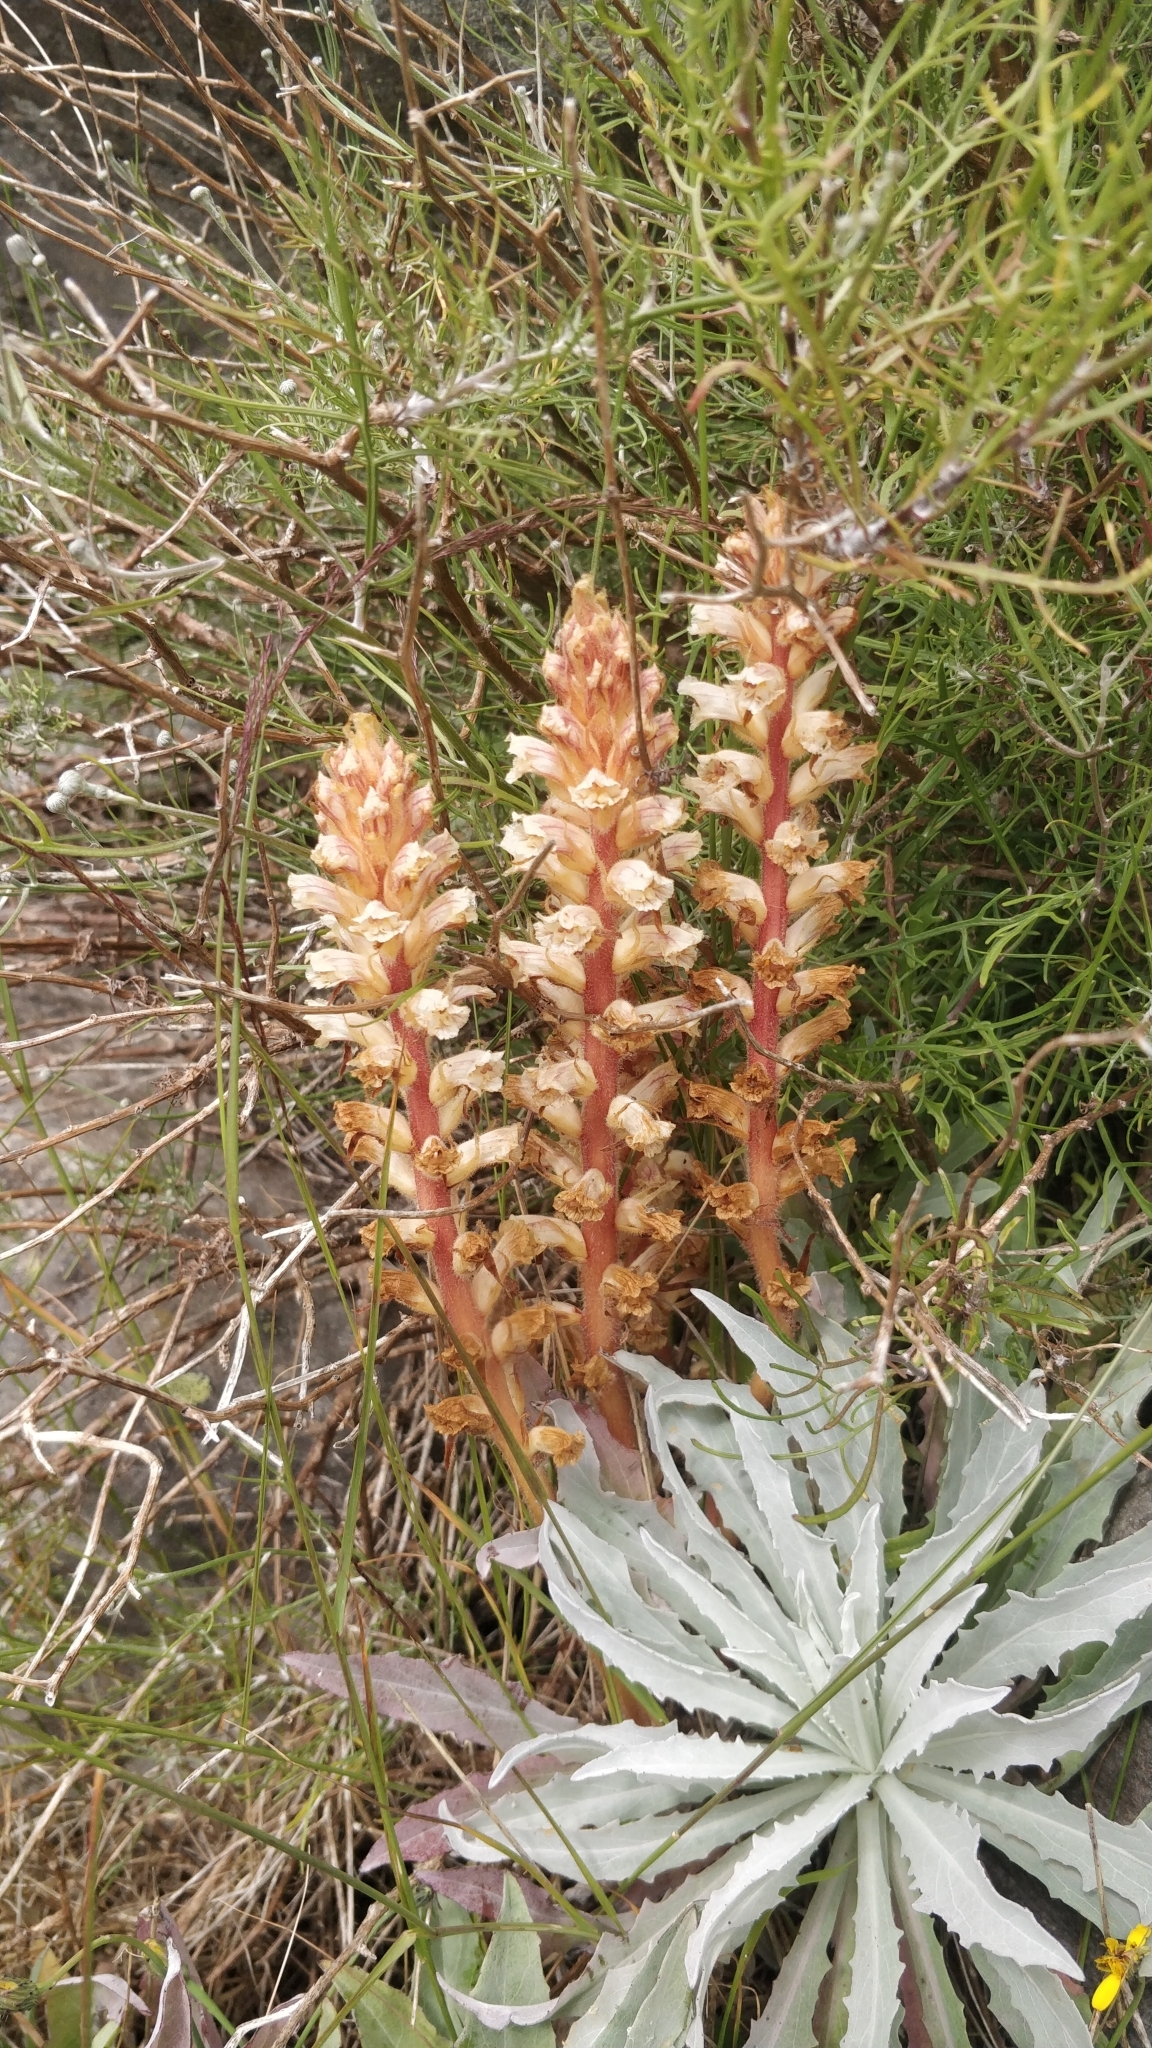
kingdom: Plantae
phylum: Tracheophyta
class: Magnoliopsida
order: Lamiales
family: Orobanchaceae
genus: Orobanche
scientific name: Orobanche minor
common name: Common broomrape
